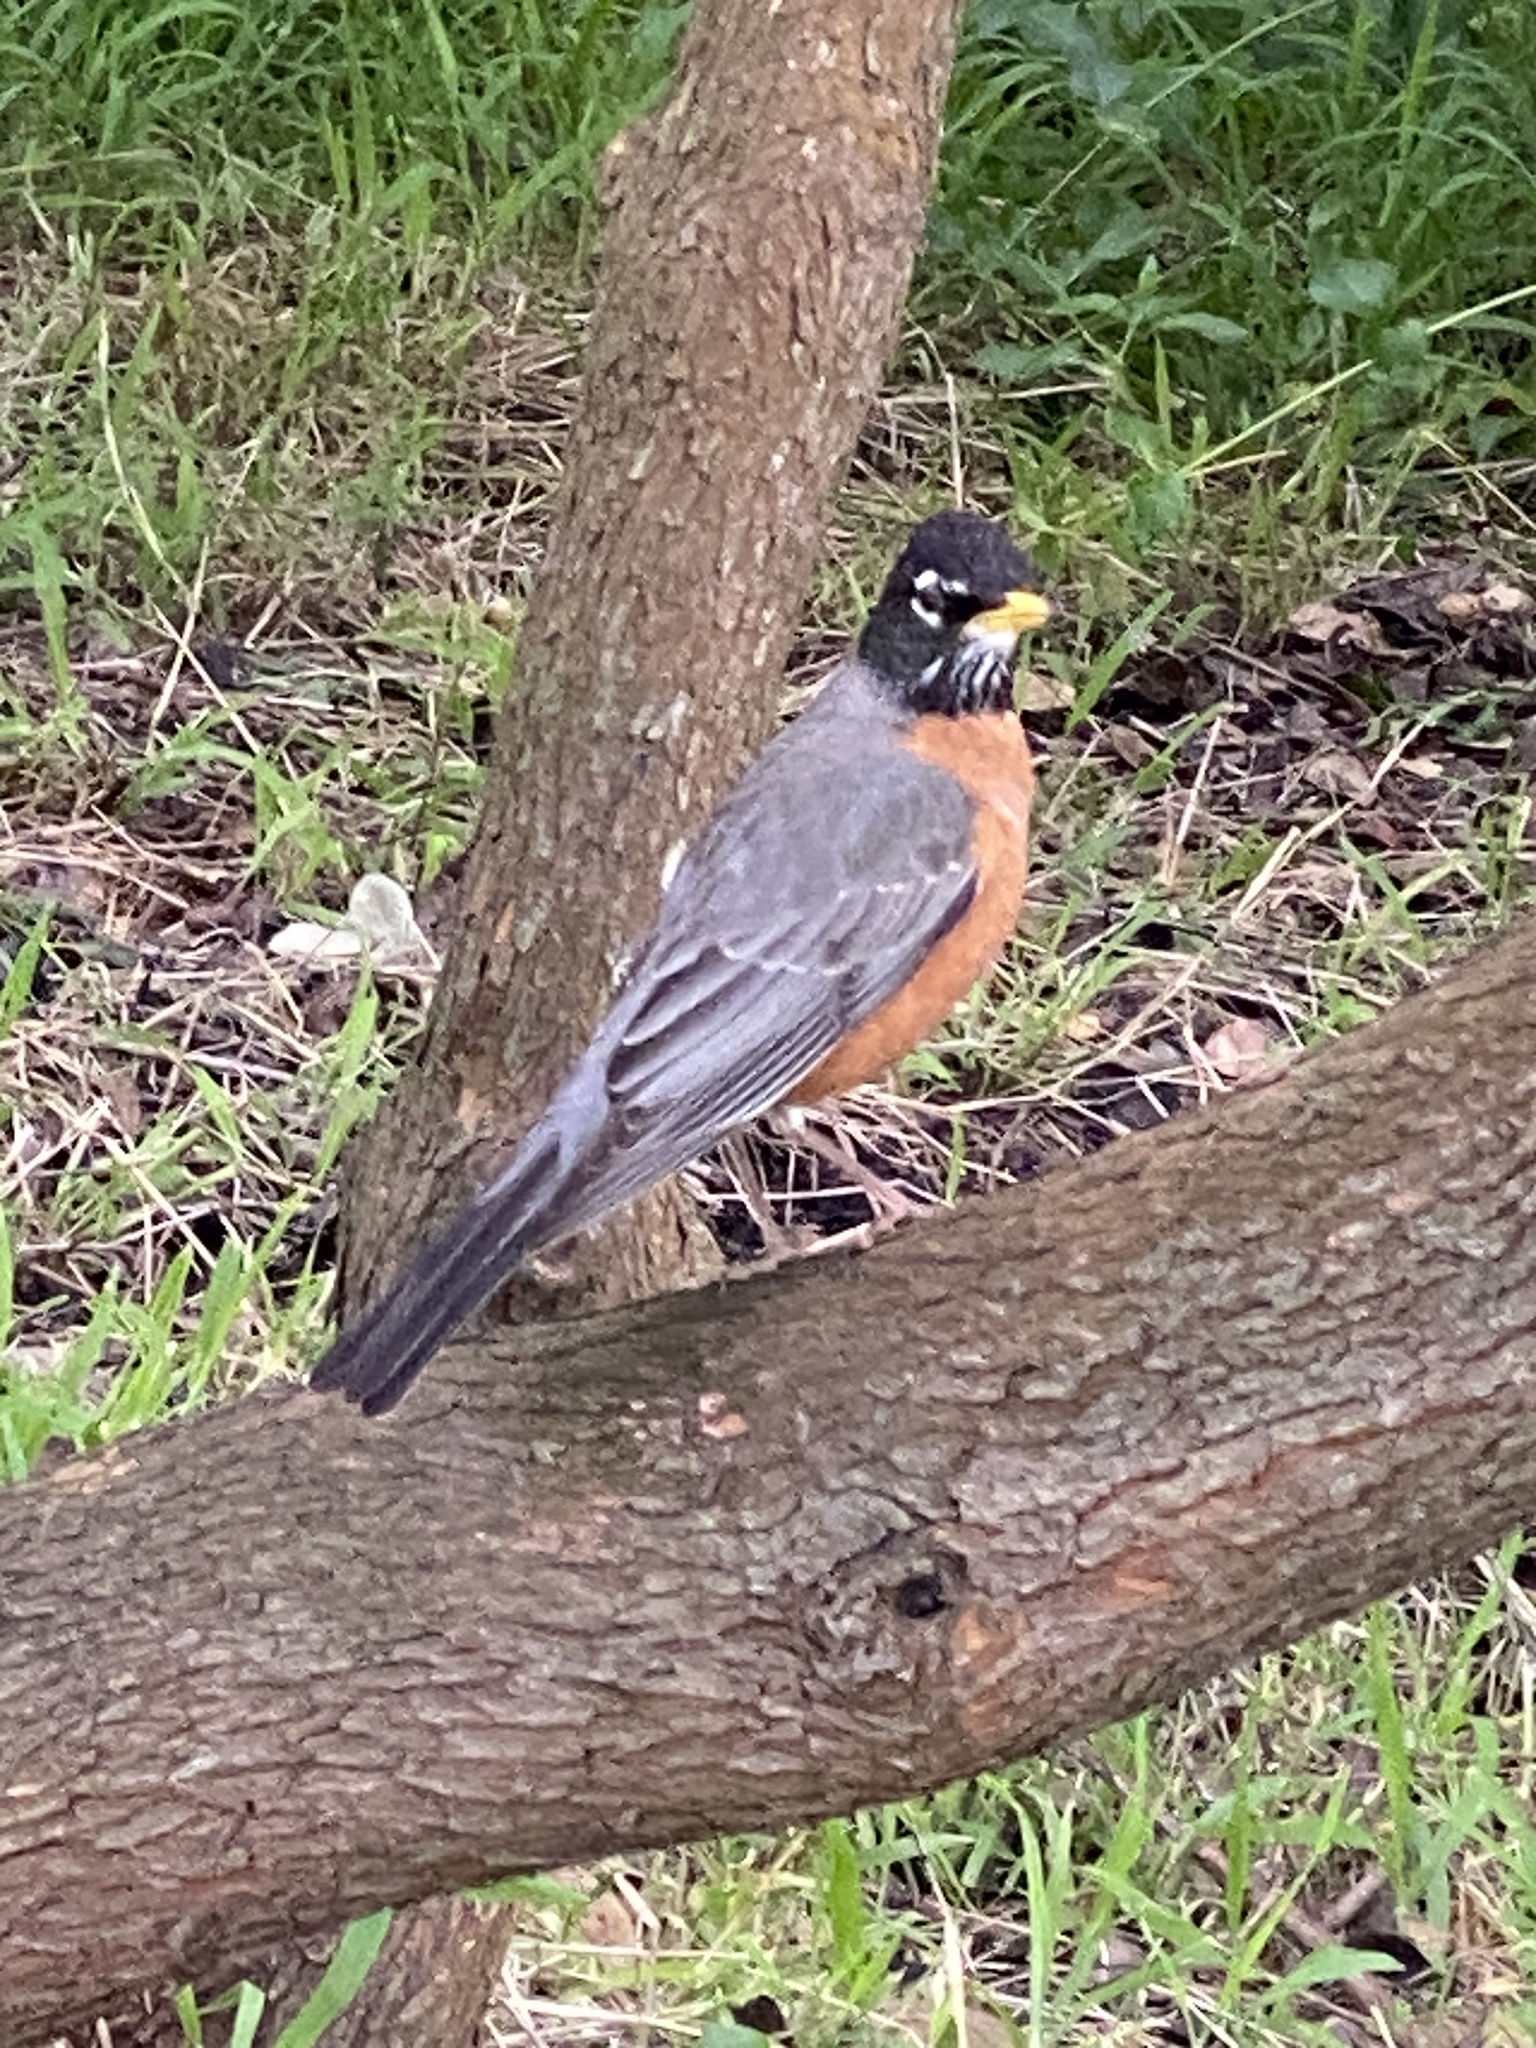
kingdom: Animalia
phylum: Chordata
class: Aves
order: Passeriformes
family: Turdidae
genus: Turdus
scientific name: Turdus migratorius
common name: American robin
